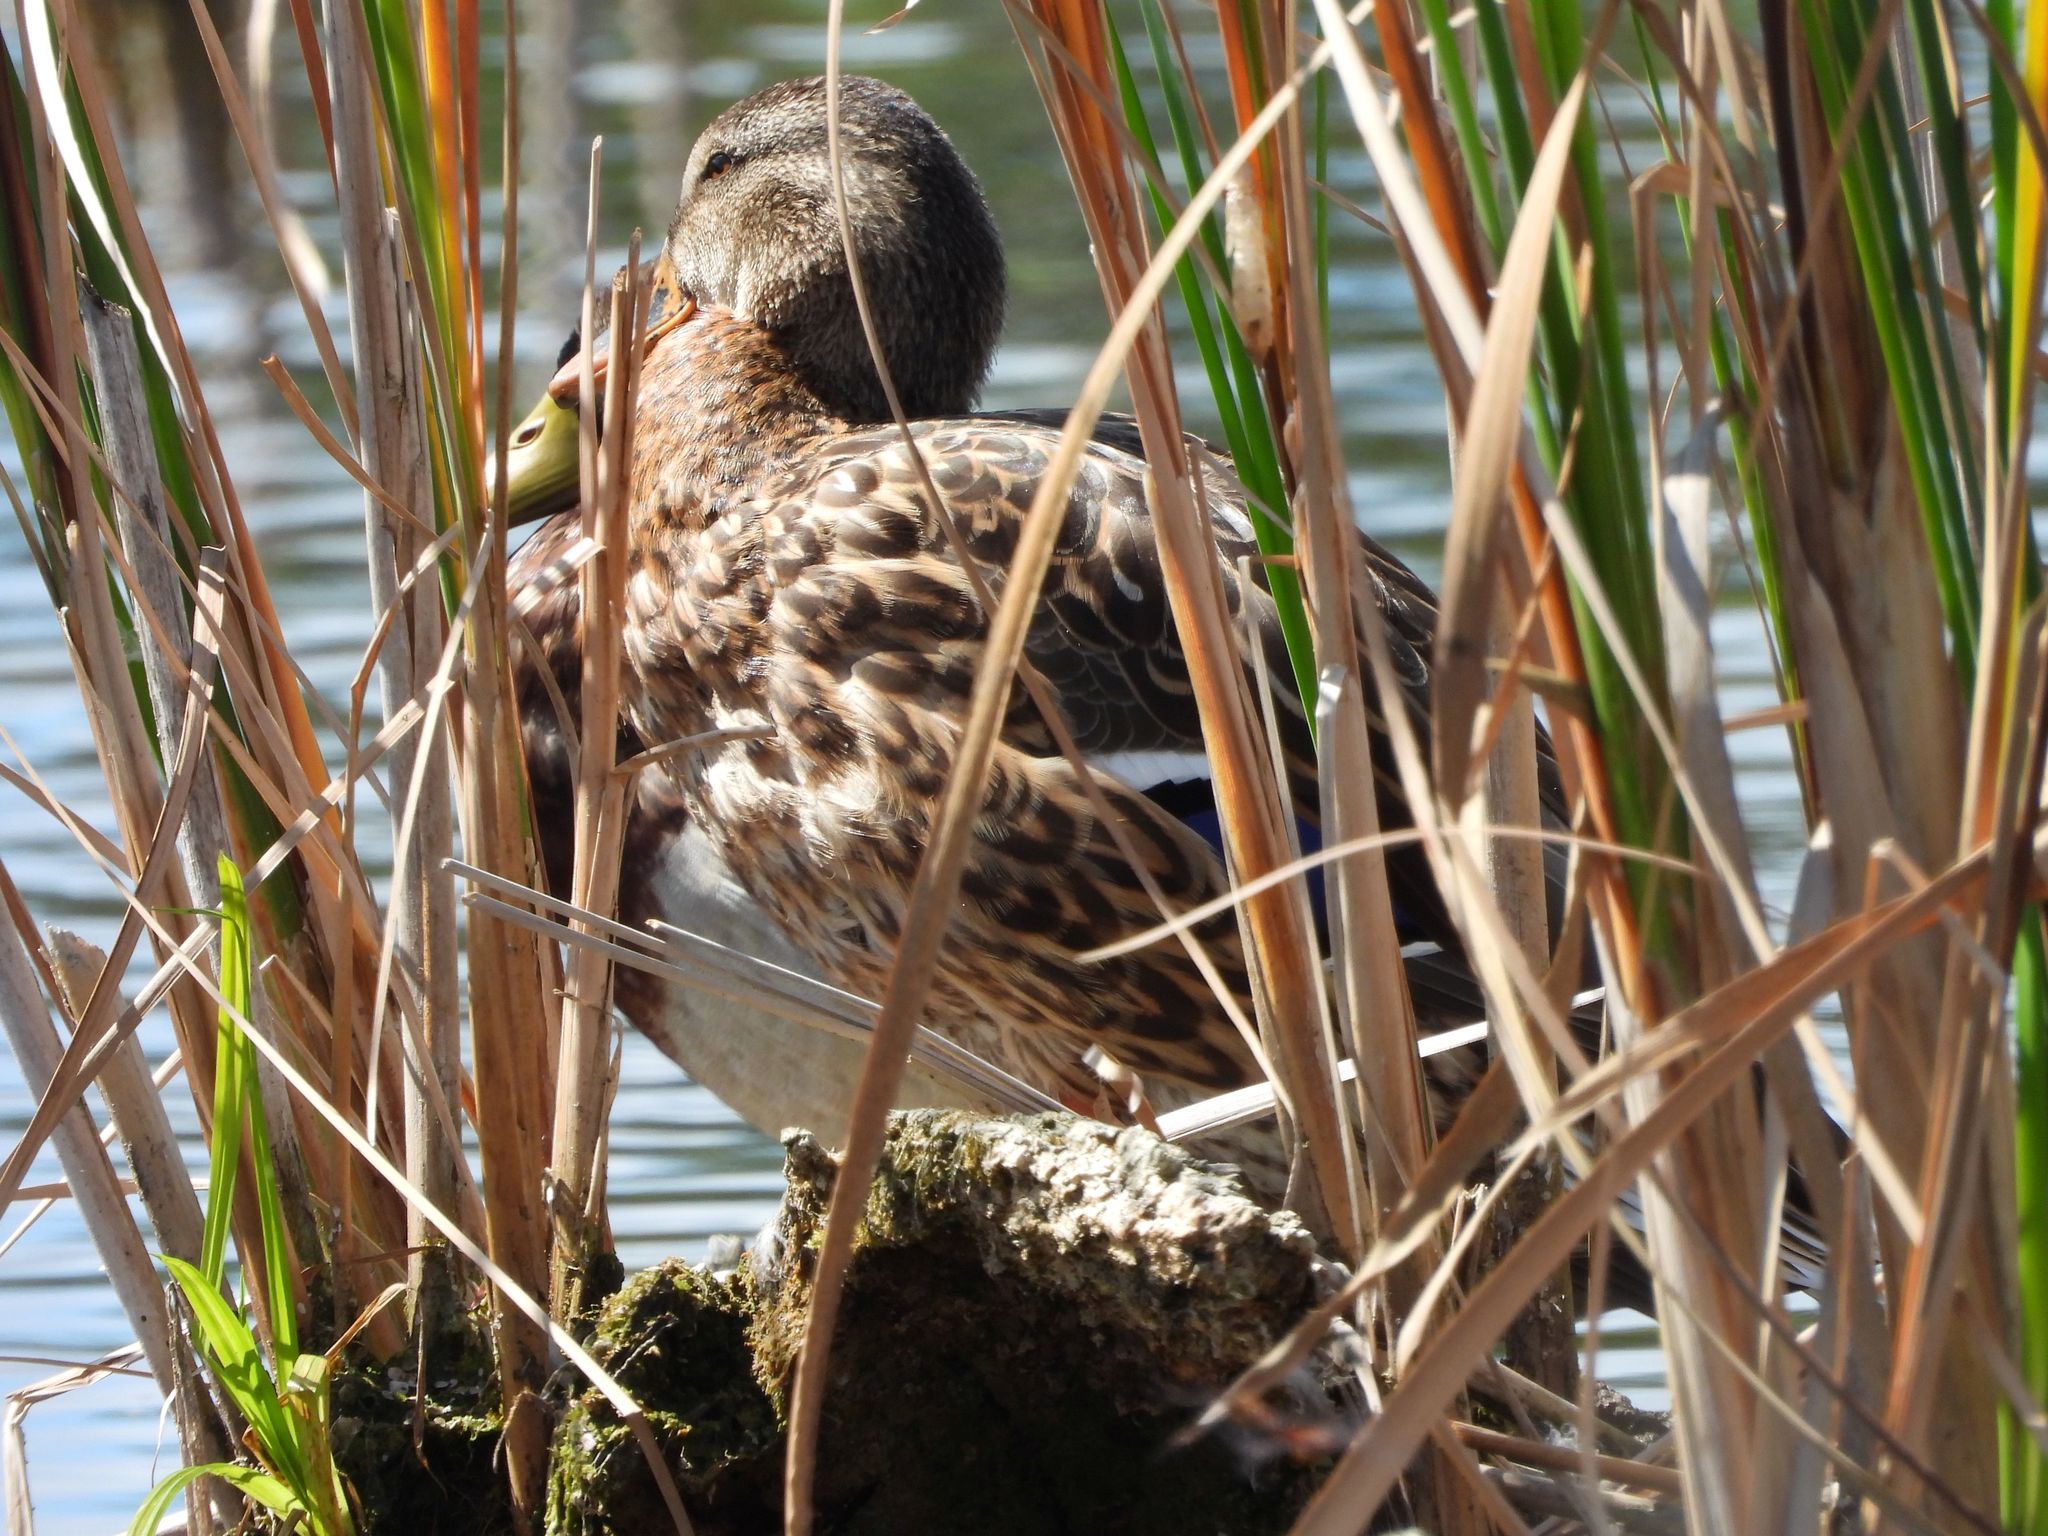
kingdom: Animalia
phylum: Chordata
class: Aves
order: Anseriformes
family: Anatidae
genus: Anas
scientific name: Anas platyrhynchos
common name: Mallard
